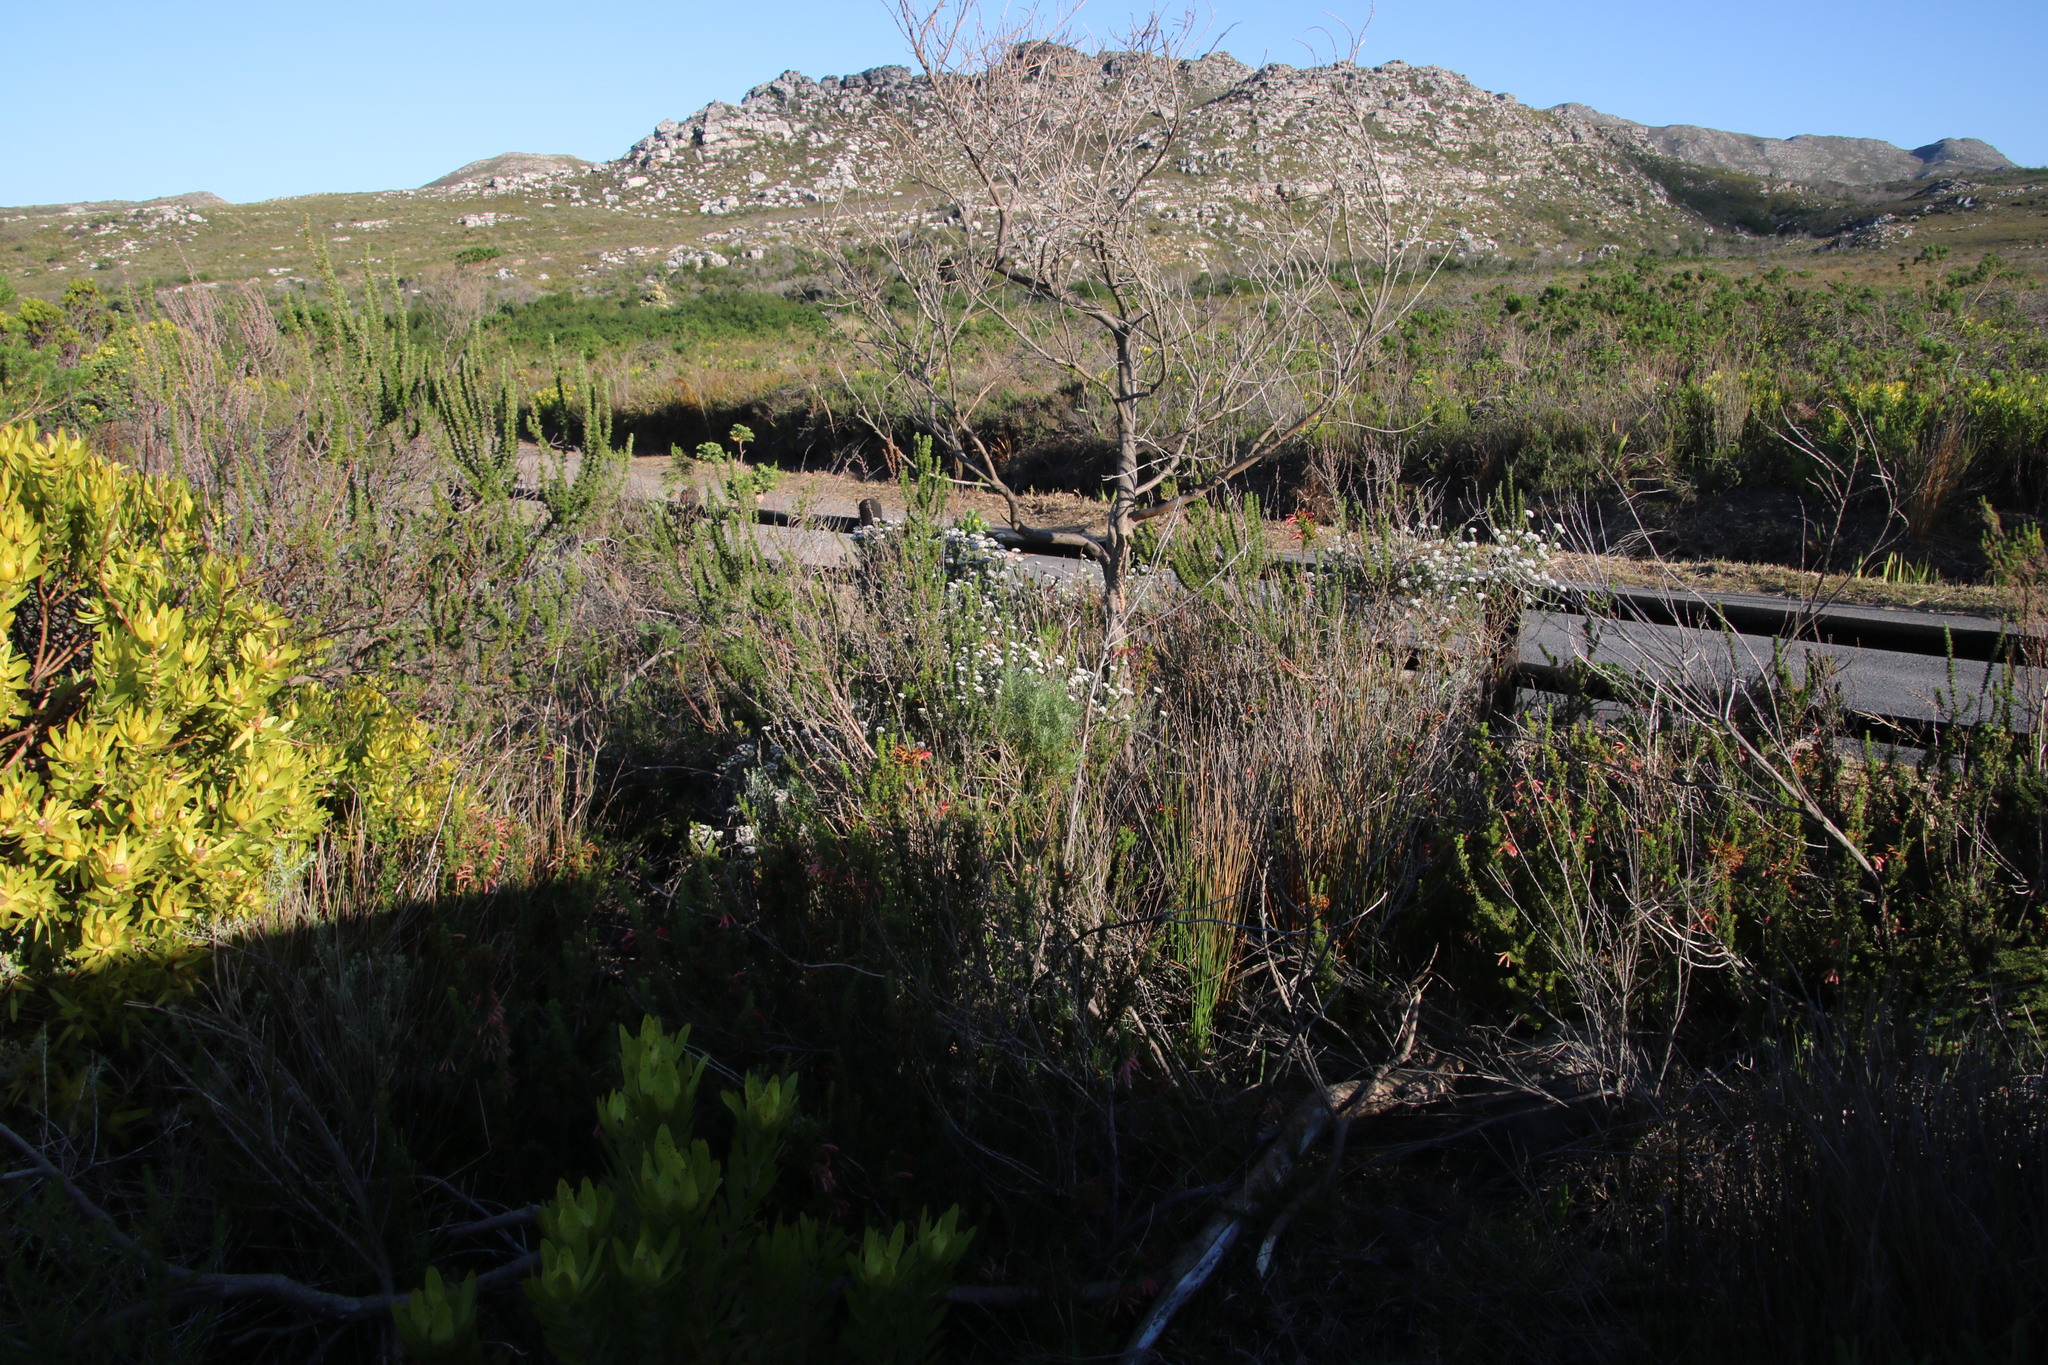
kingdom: Plantae
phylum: Tracheophyta
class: Magnoliopsida
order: Ericales
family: Ericaceae
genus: Erica
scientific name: Erica glandulosa
